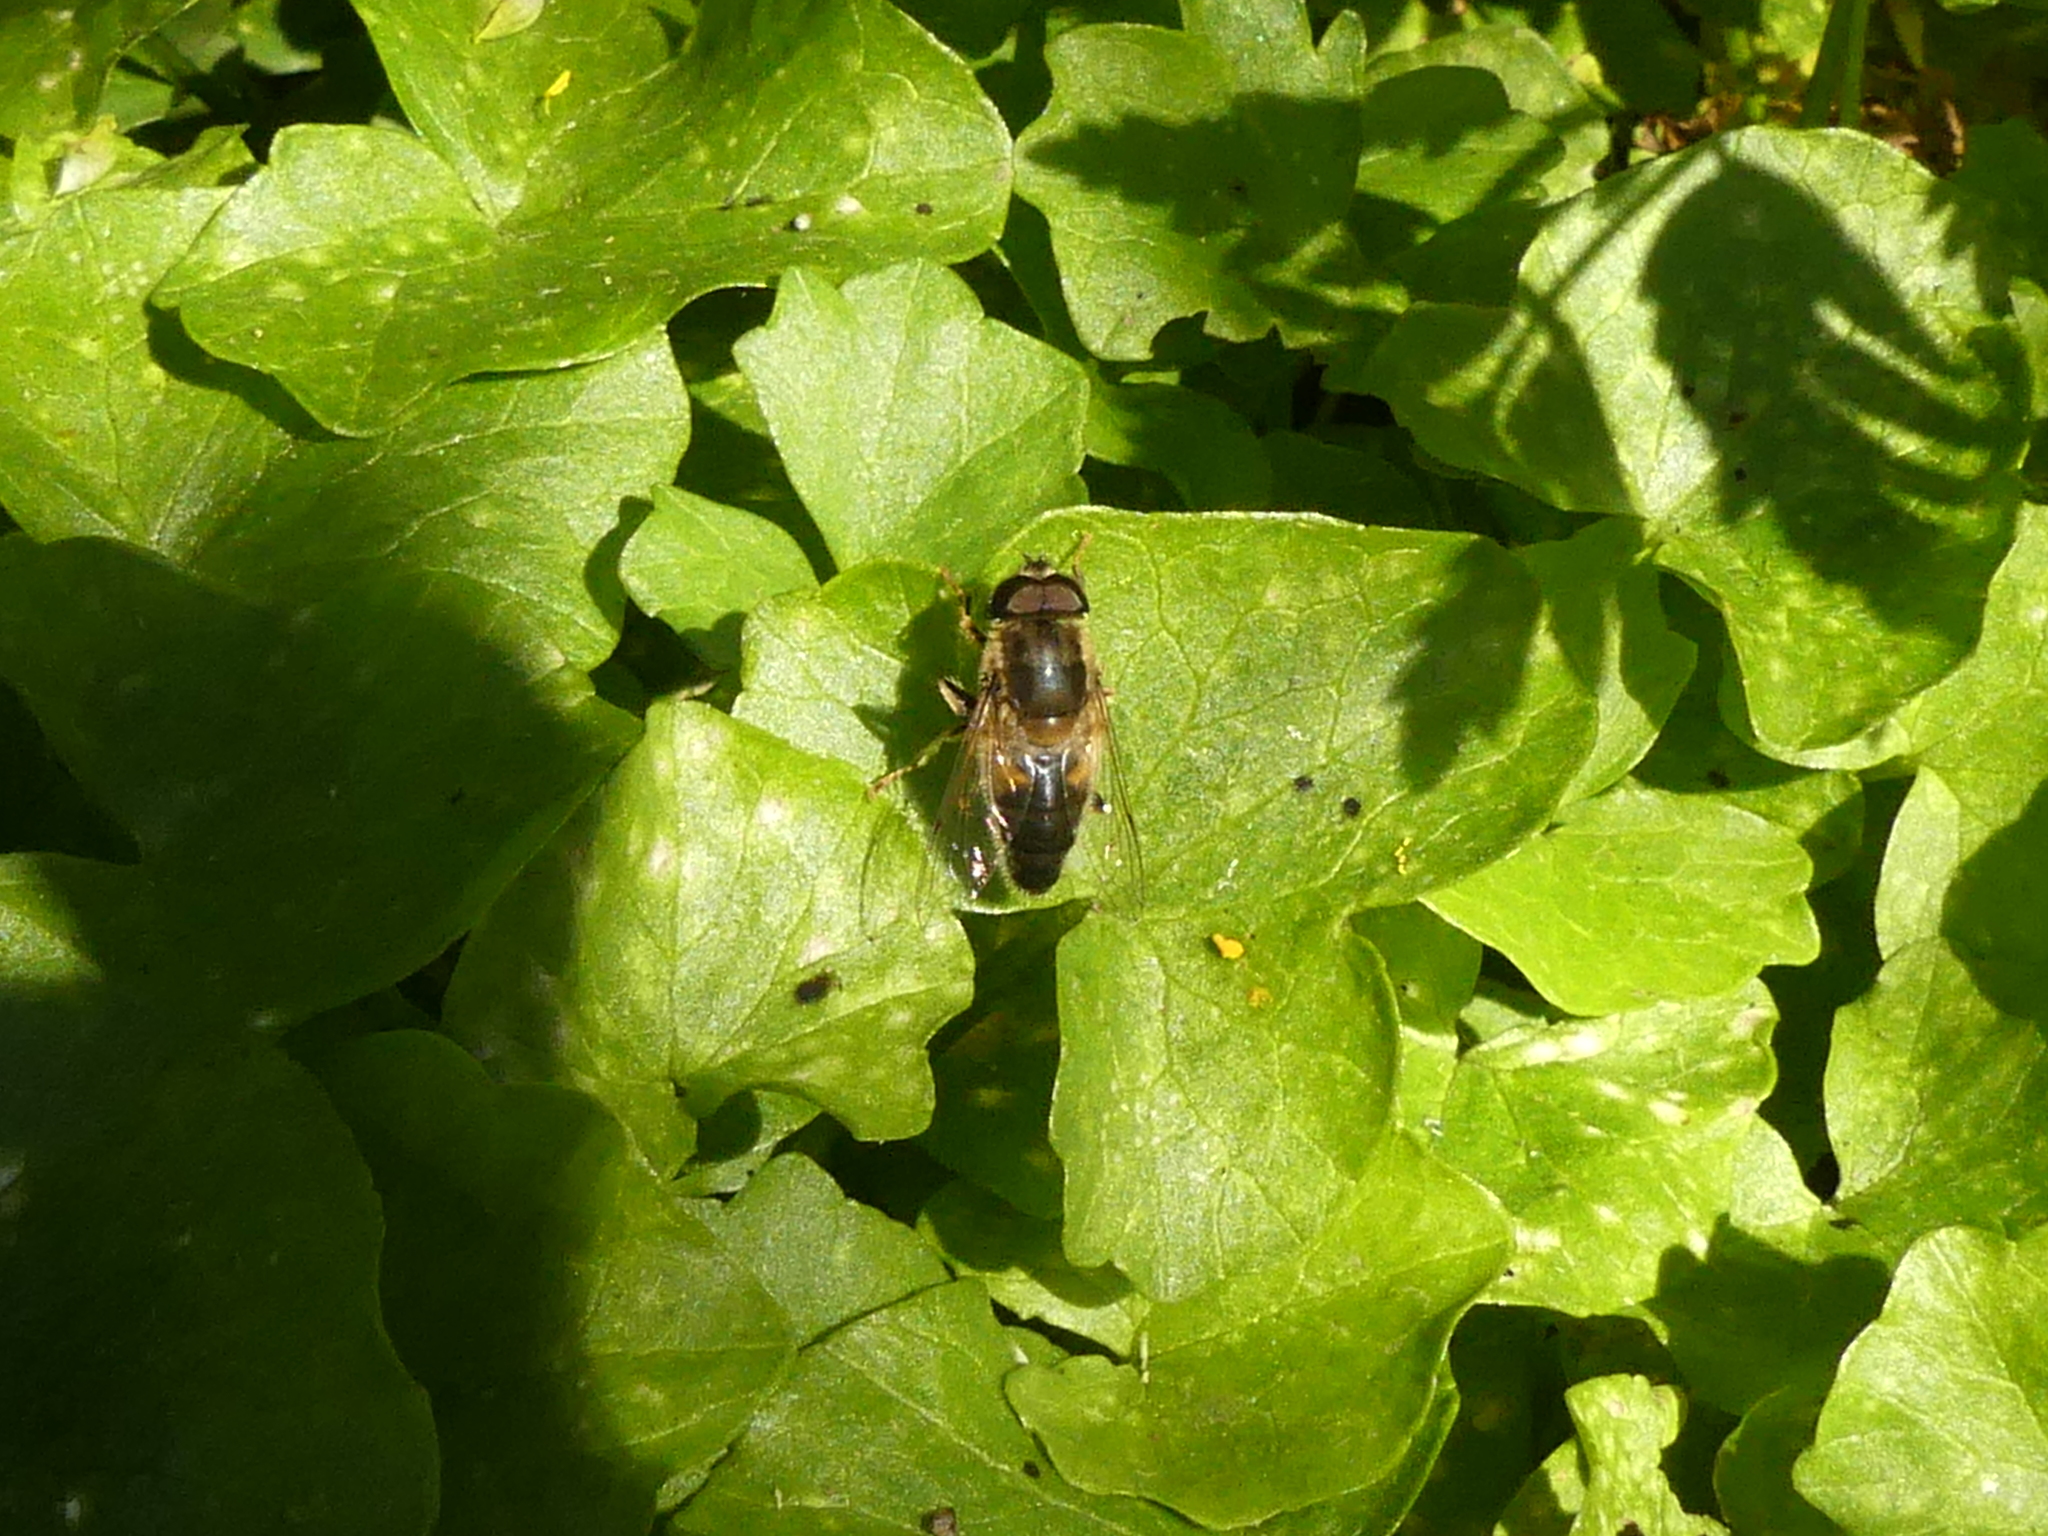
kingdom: Animalia
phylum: Arthropoda
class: Insecta
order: Diptera
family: Syrphidae
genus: Eristalis
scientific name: Eristalis pertinax
